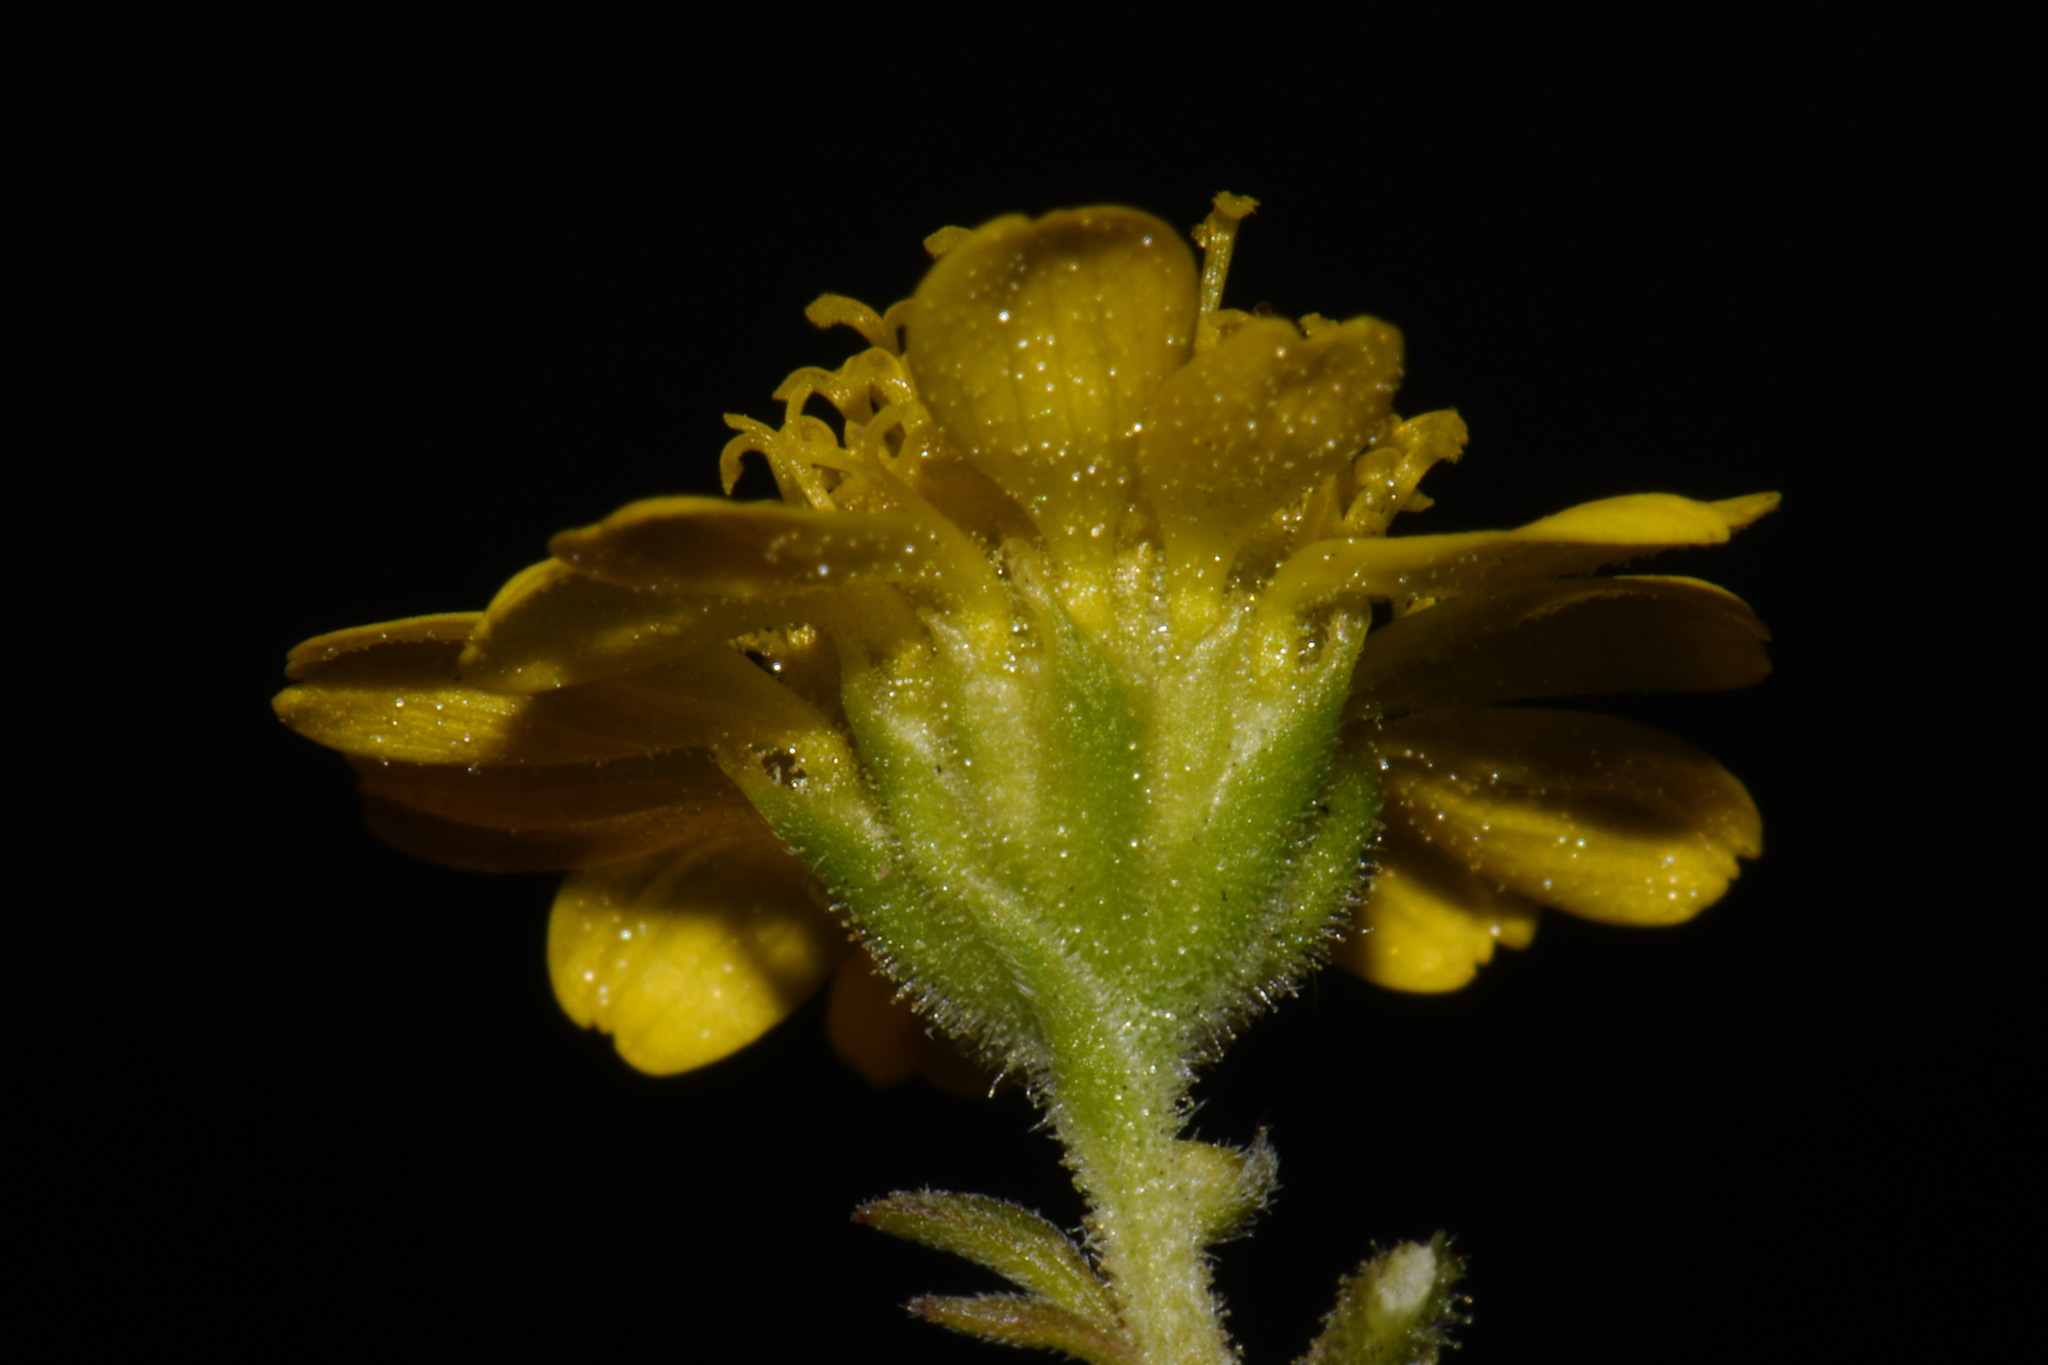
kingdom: Plantae
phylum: Tracheophyta
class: Magnoliopsida
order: Asterales
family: Asteraceae
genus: Hymenothrix
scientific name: Hymenothrix dissecta
